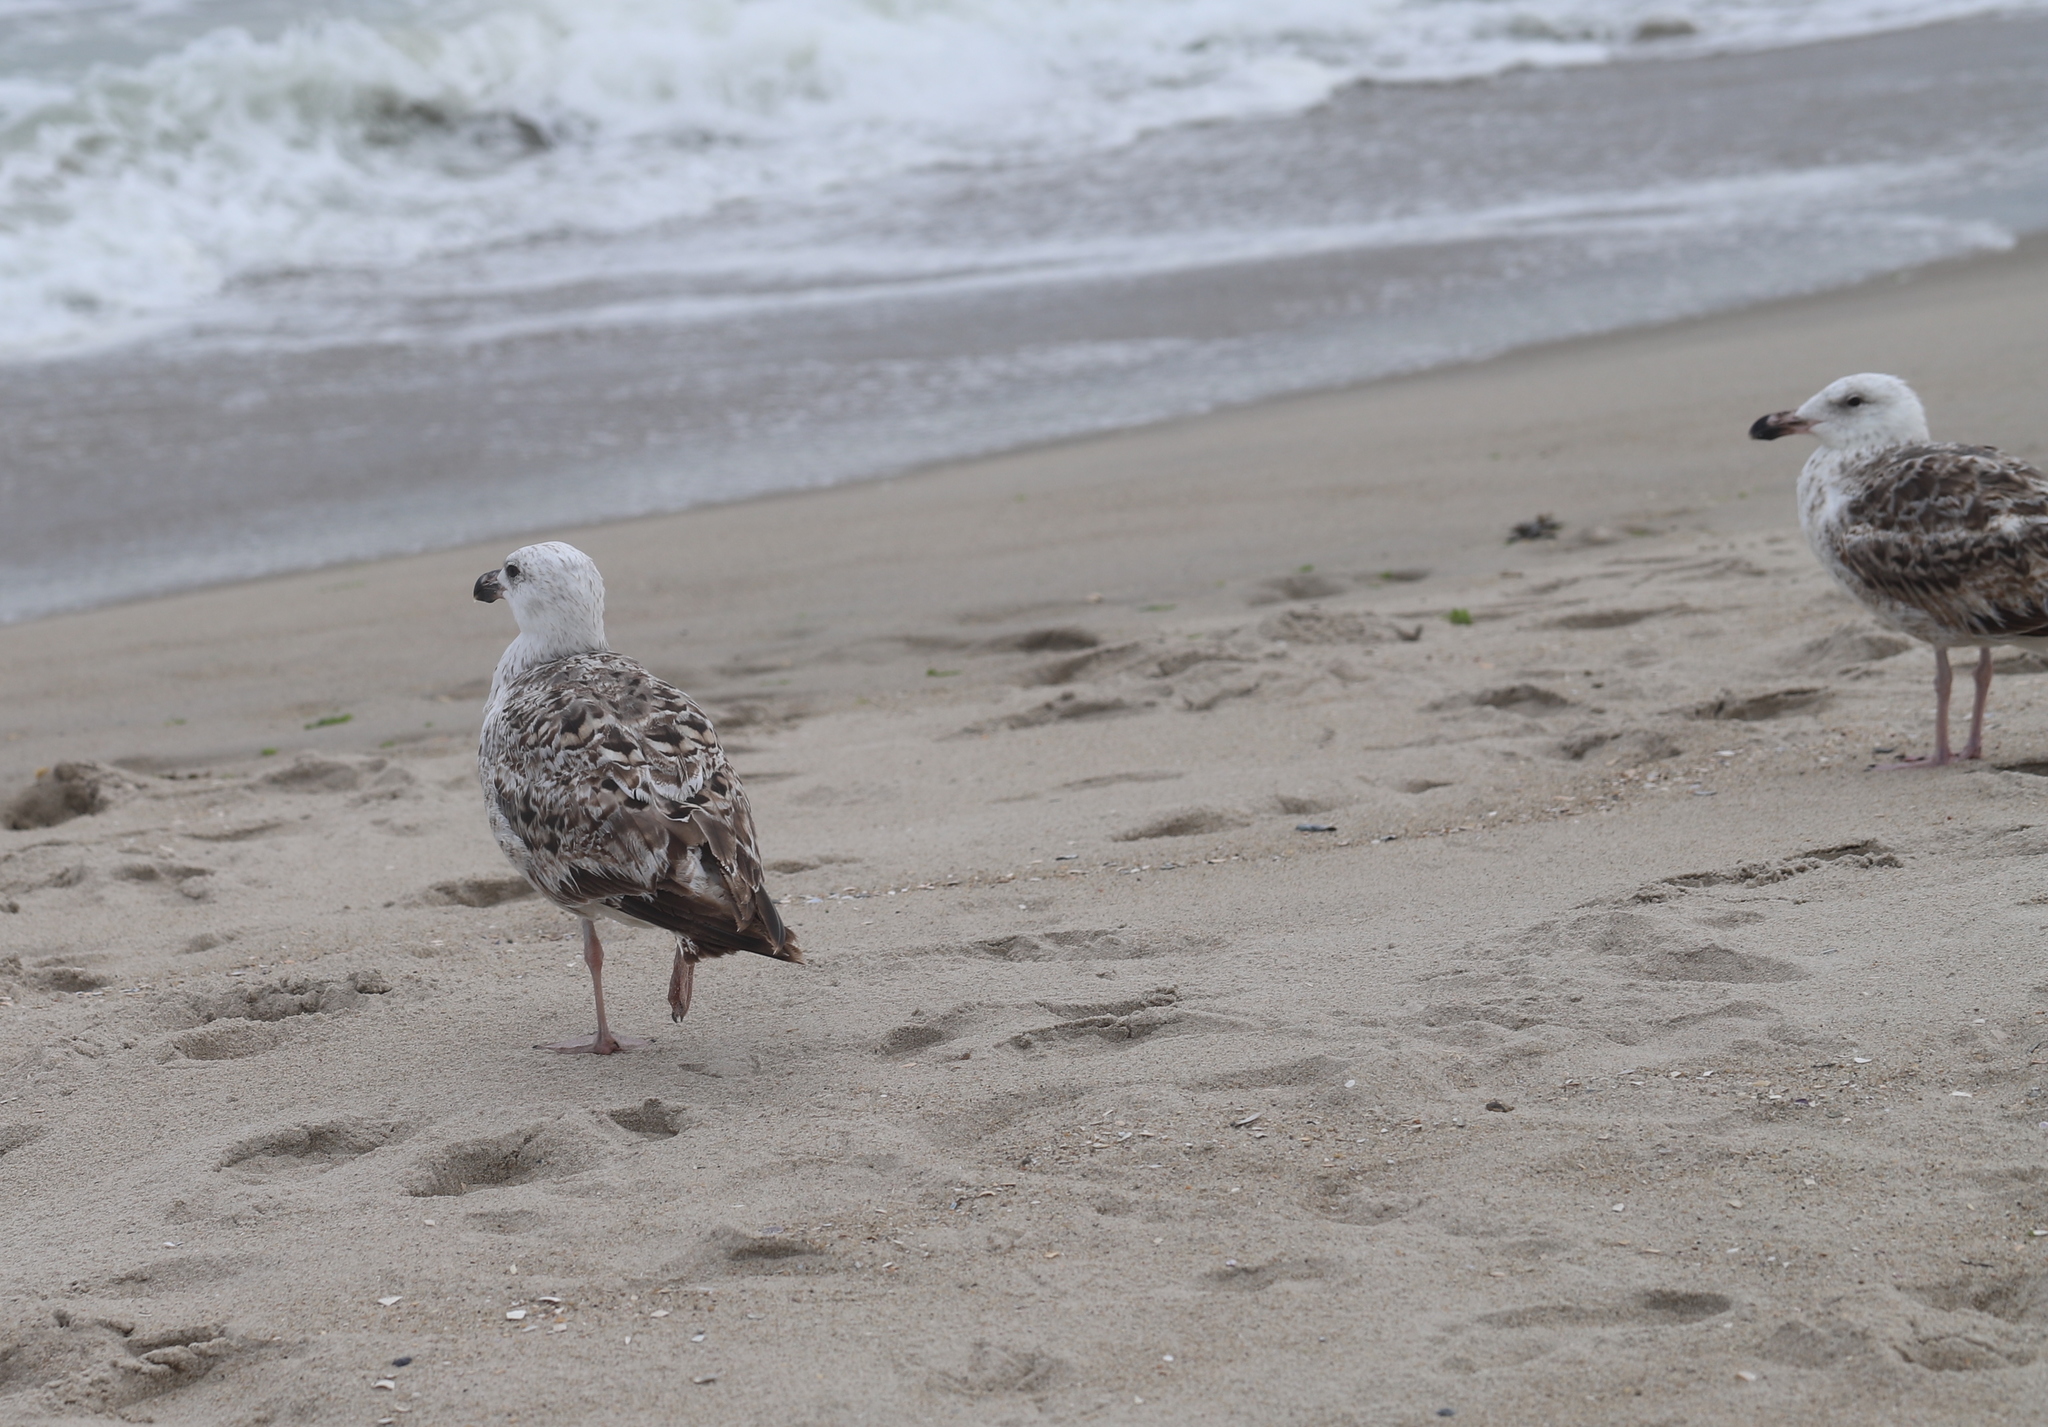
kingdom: Animalia
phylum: Chordata
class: Aves
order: Charadriiformes
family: Laridae
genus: Larus
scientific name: Larus marinus
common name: Great black-backed gull
